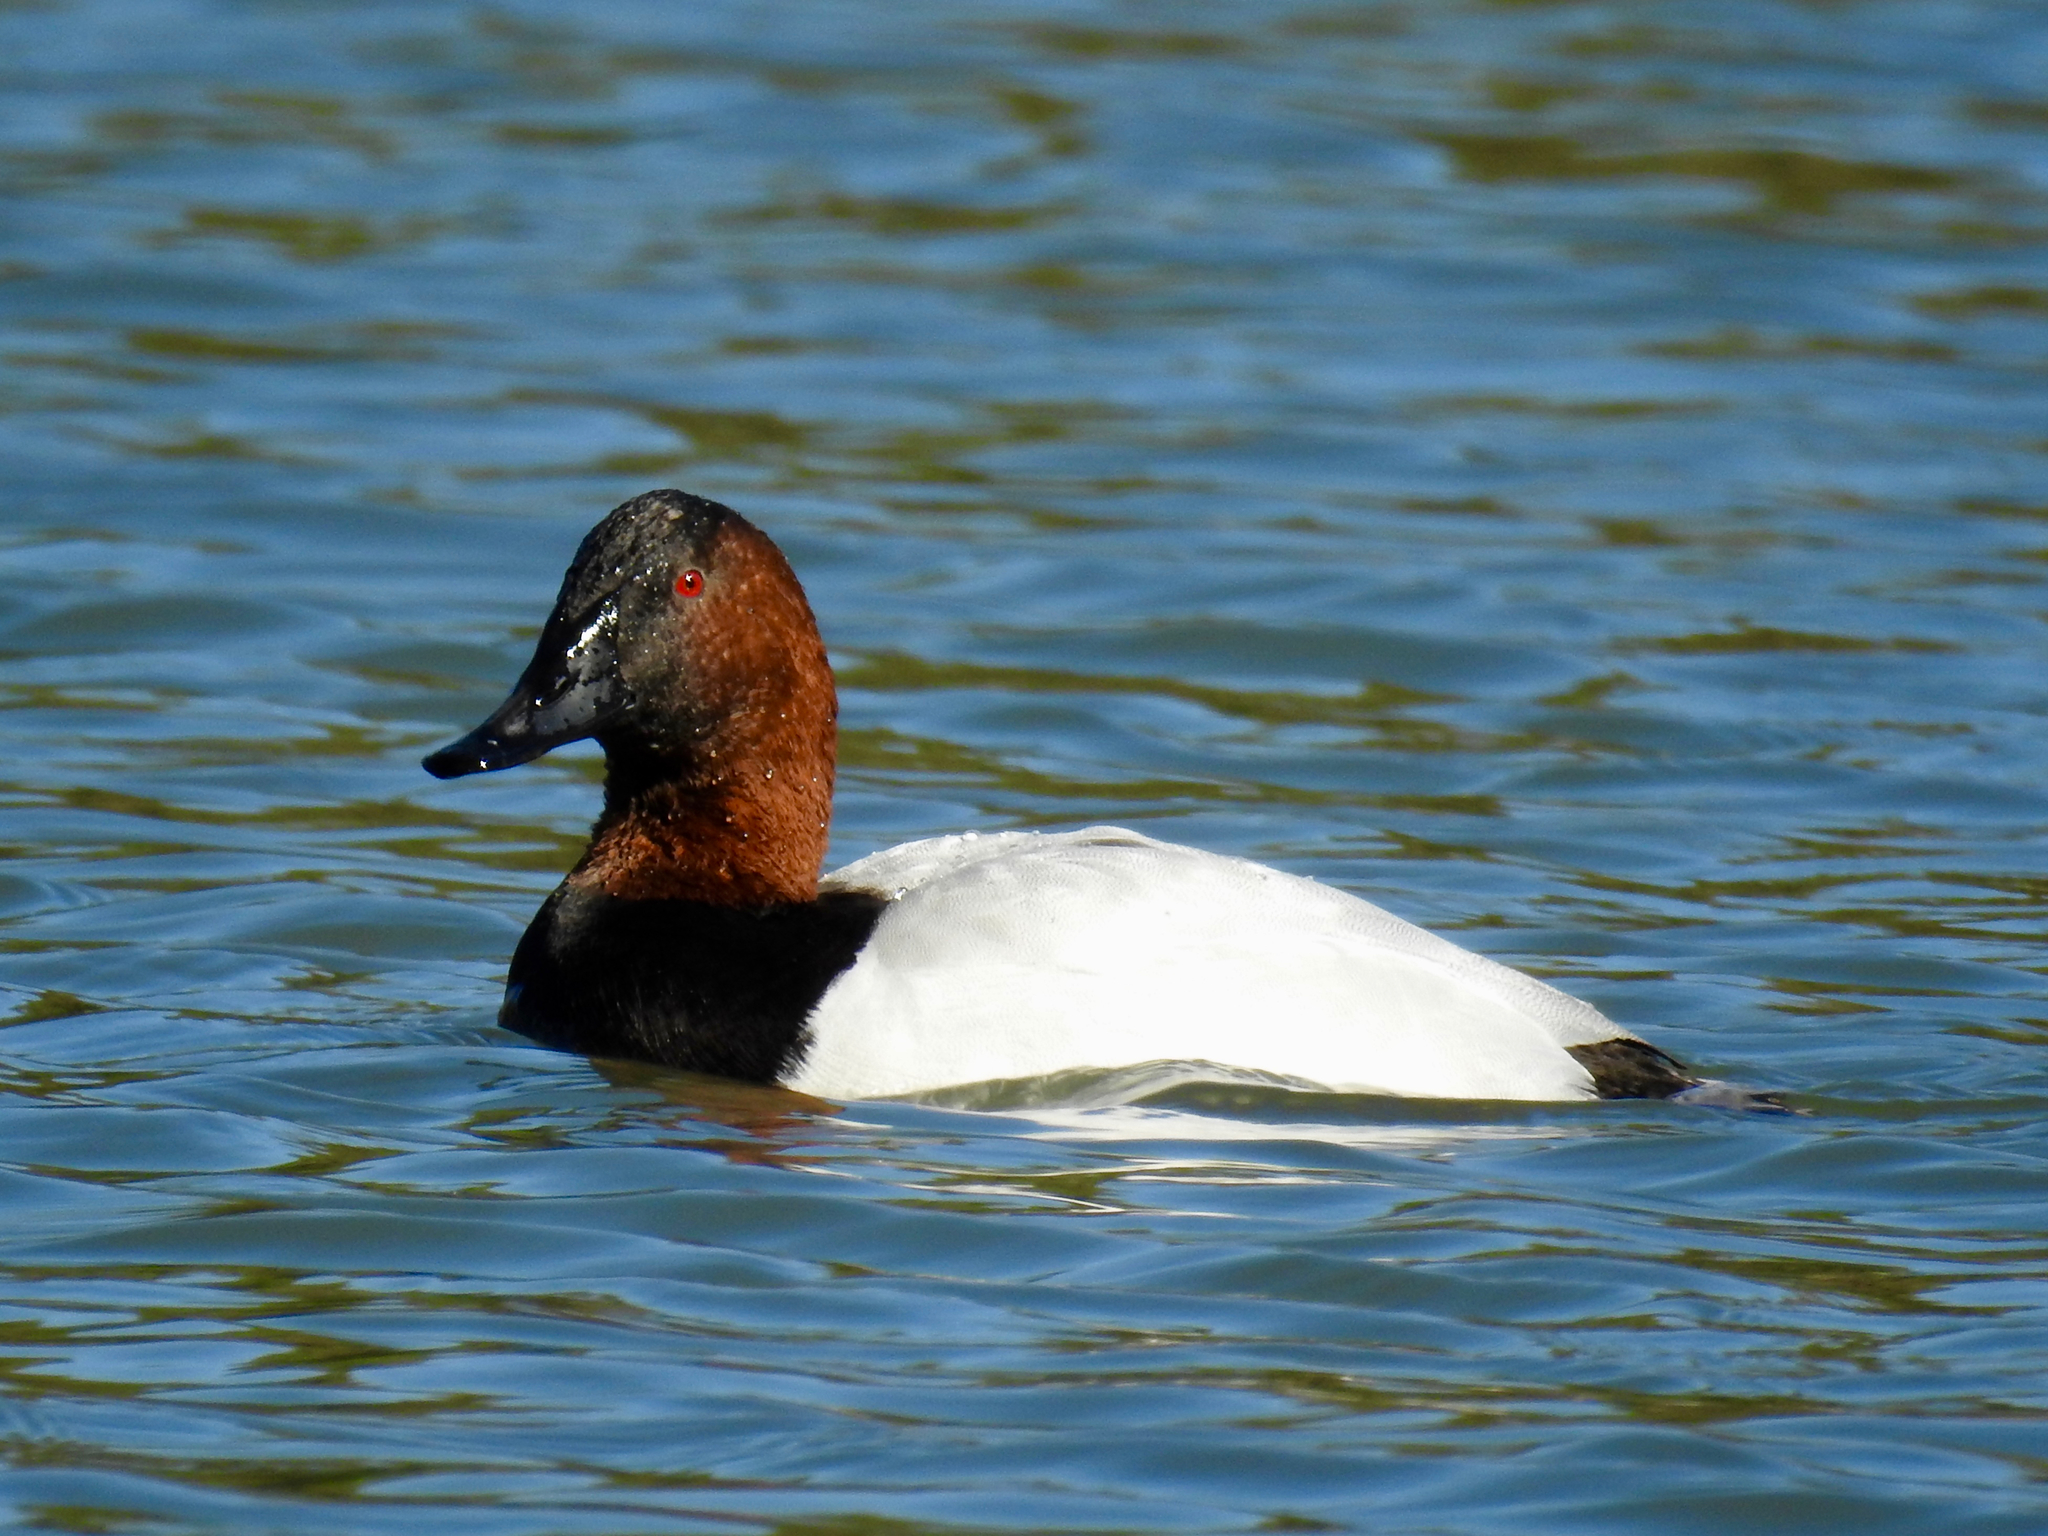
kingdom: Animalia
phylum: Chordata
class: Aves
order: Anseriformes
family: Anatidae
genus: Aythya
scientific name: Aythya valisineria
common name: Canvasback
